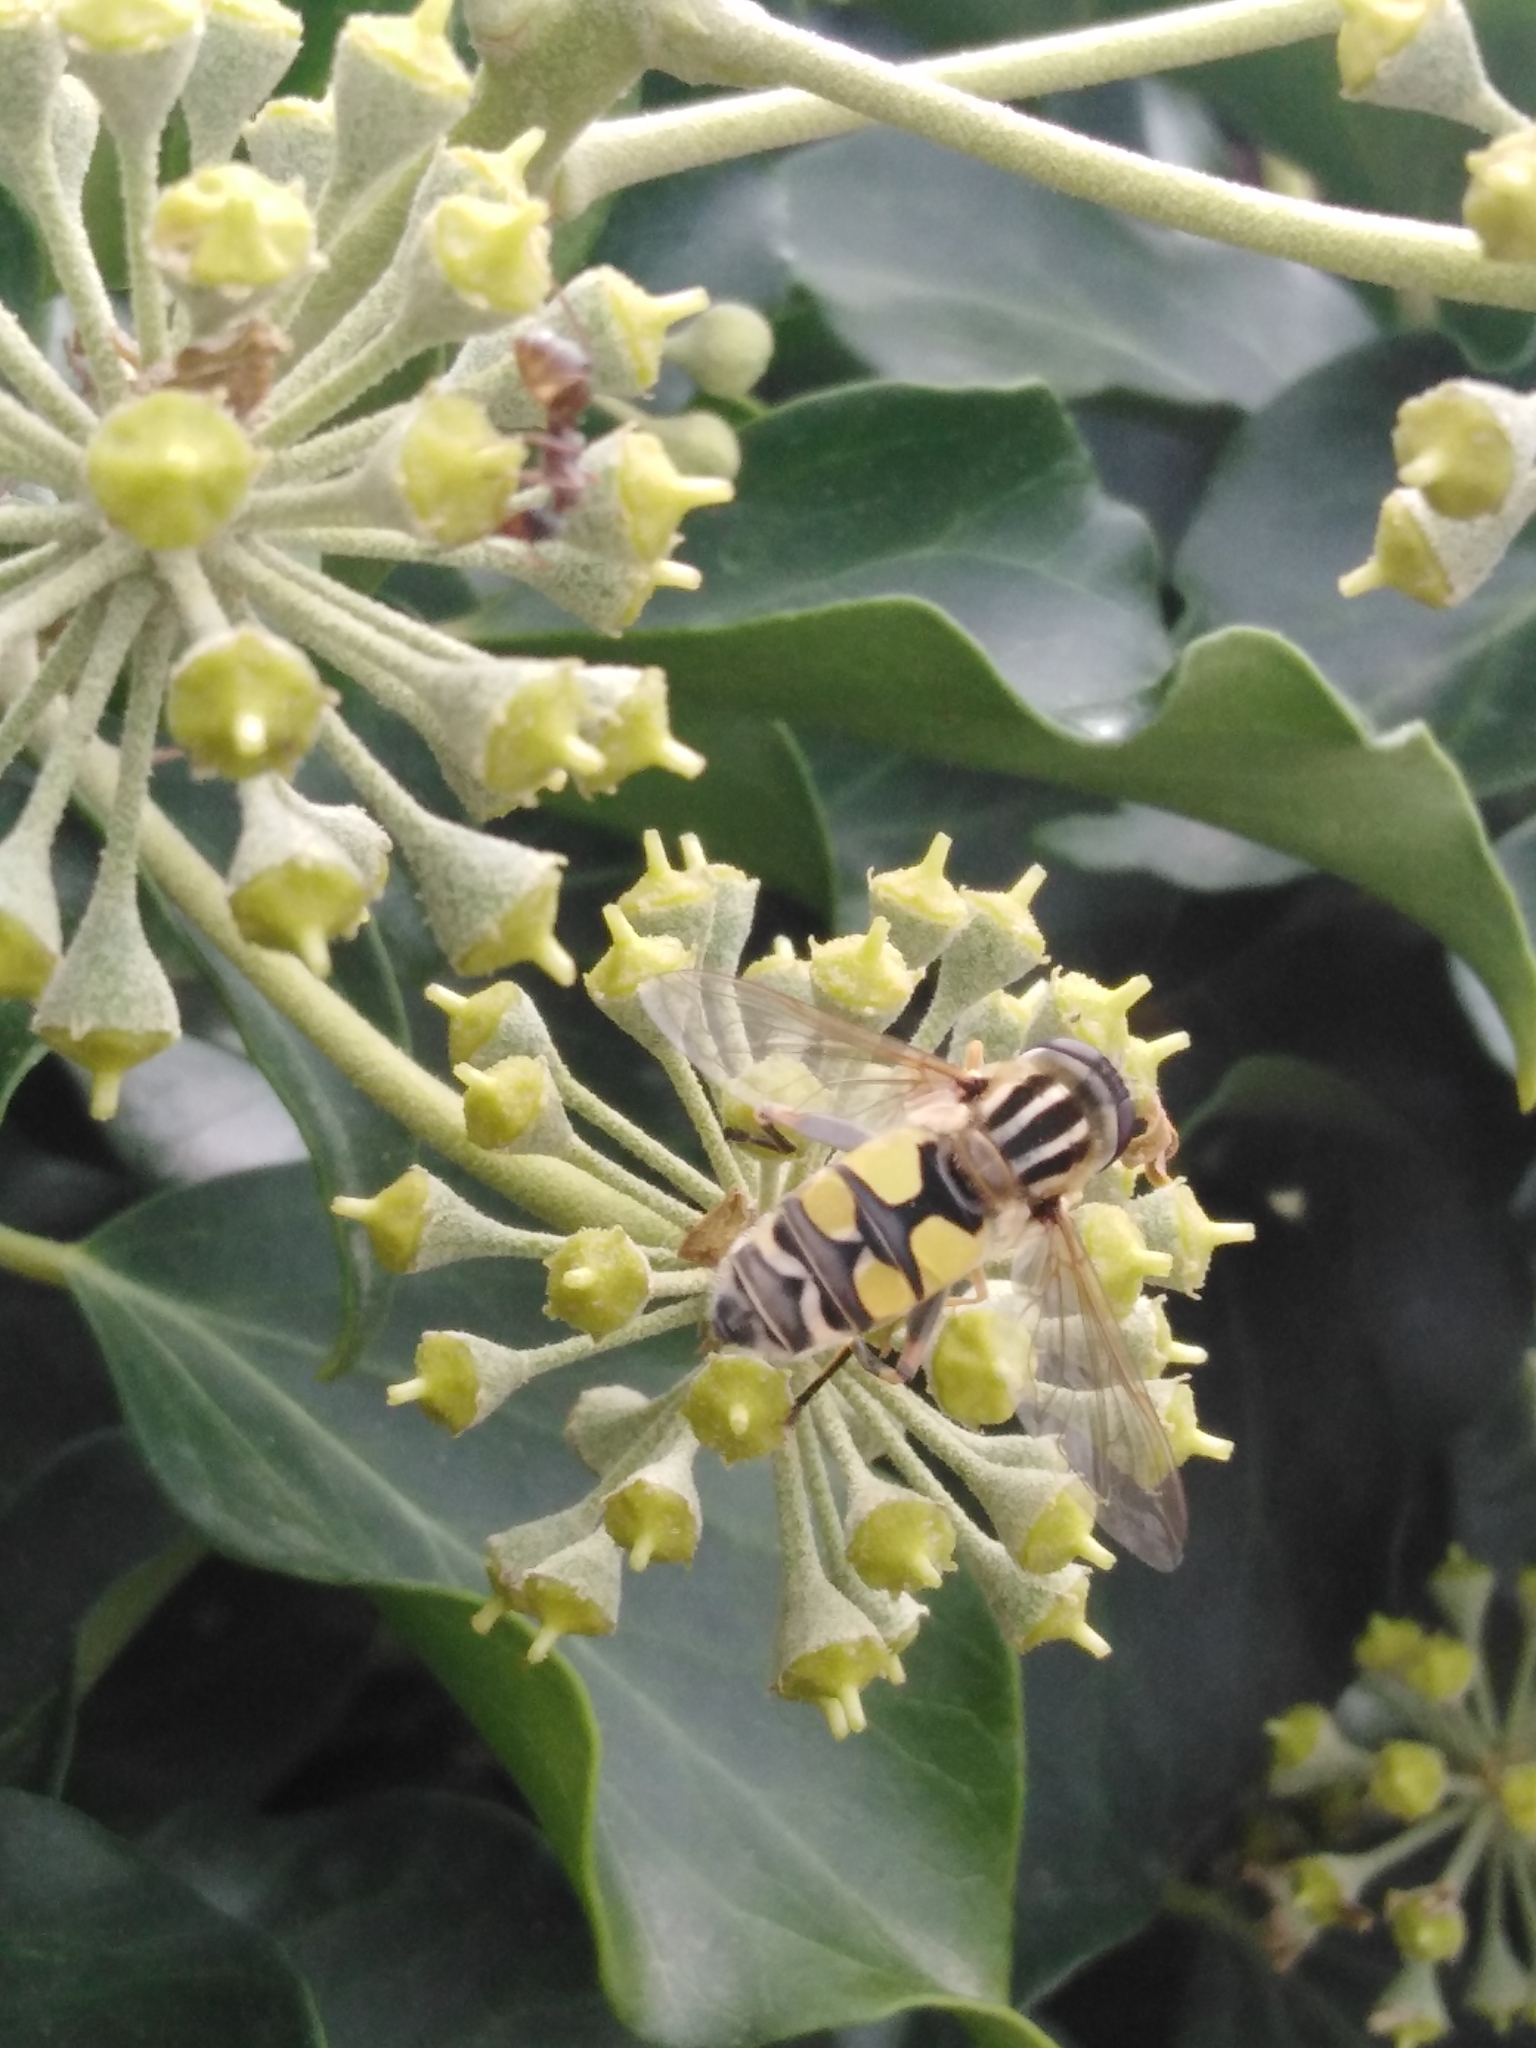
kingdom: Animalia
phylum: Arthropoda
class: Insecta
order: Diptera
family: Syrphidae
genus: Helophilus
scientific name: Helophilus trivittatus
